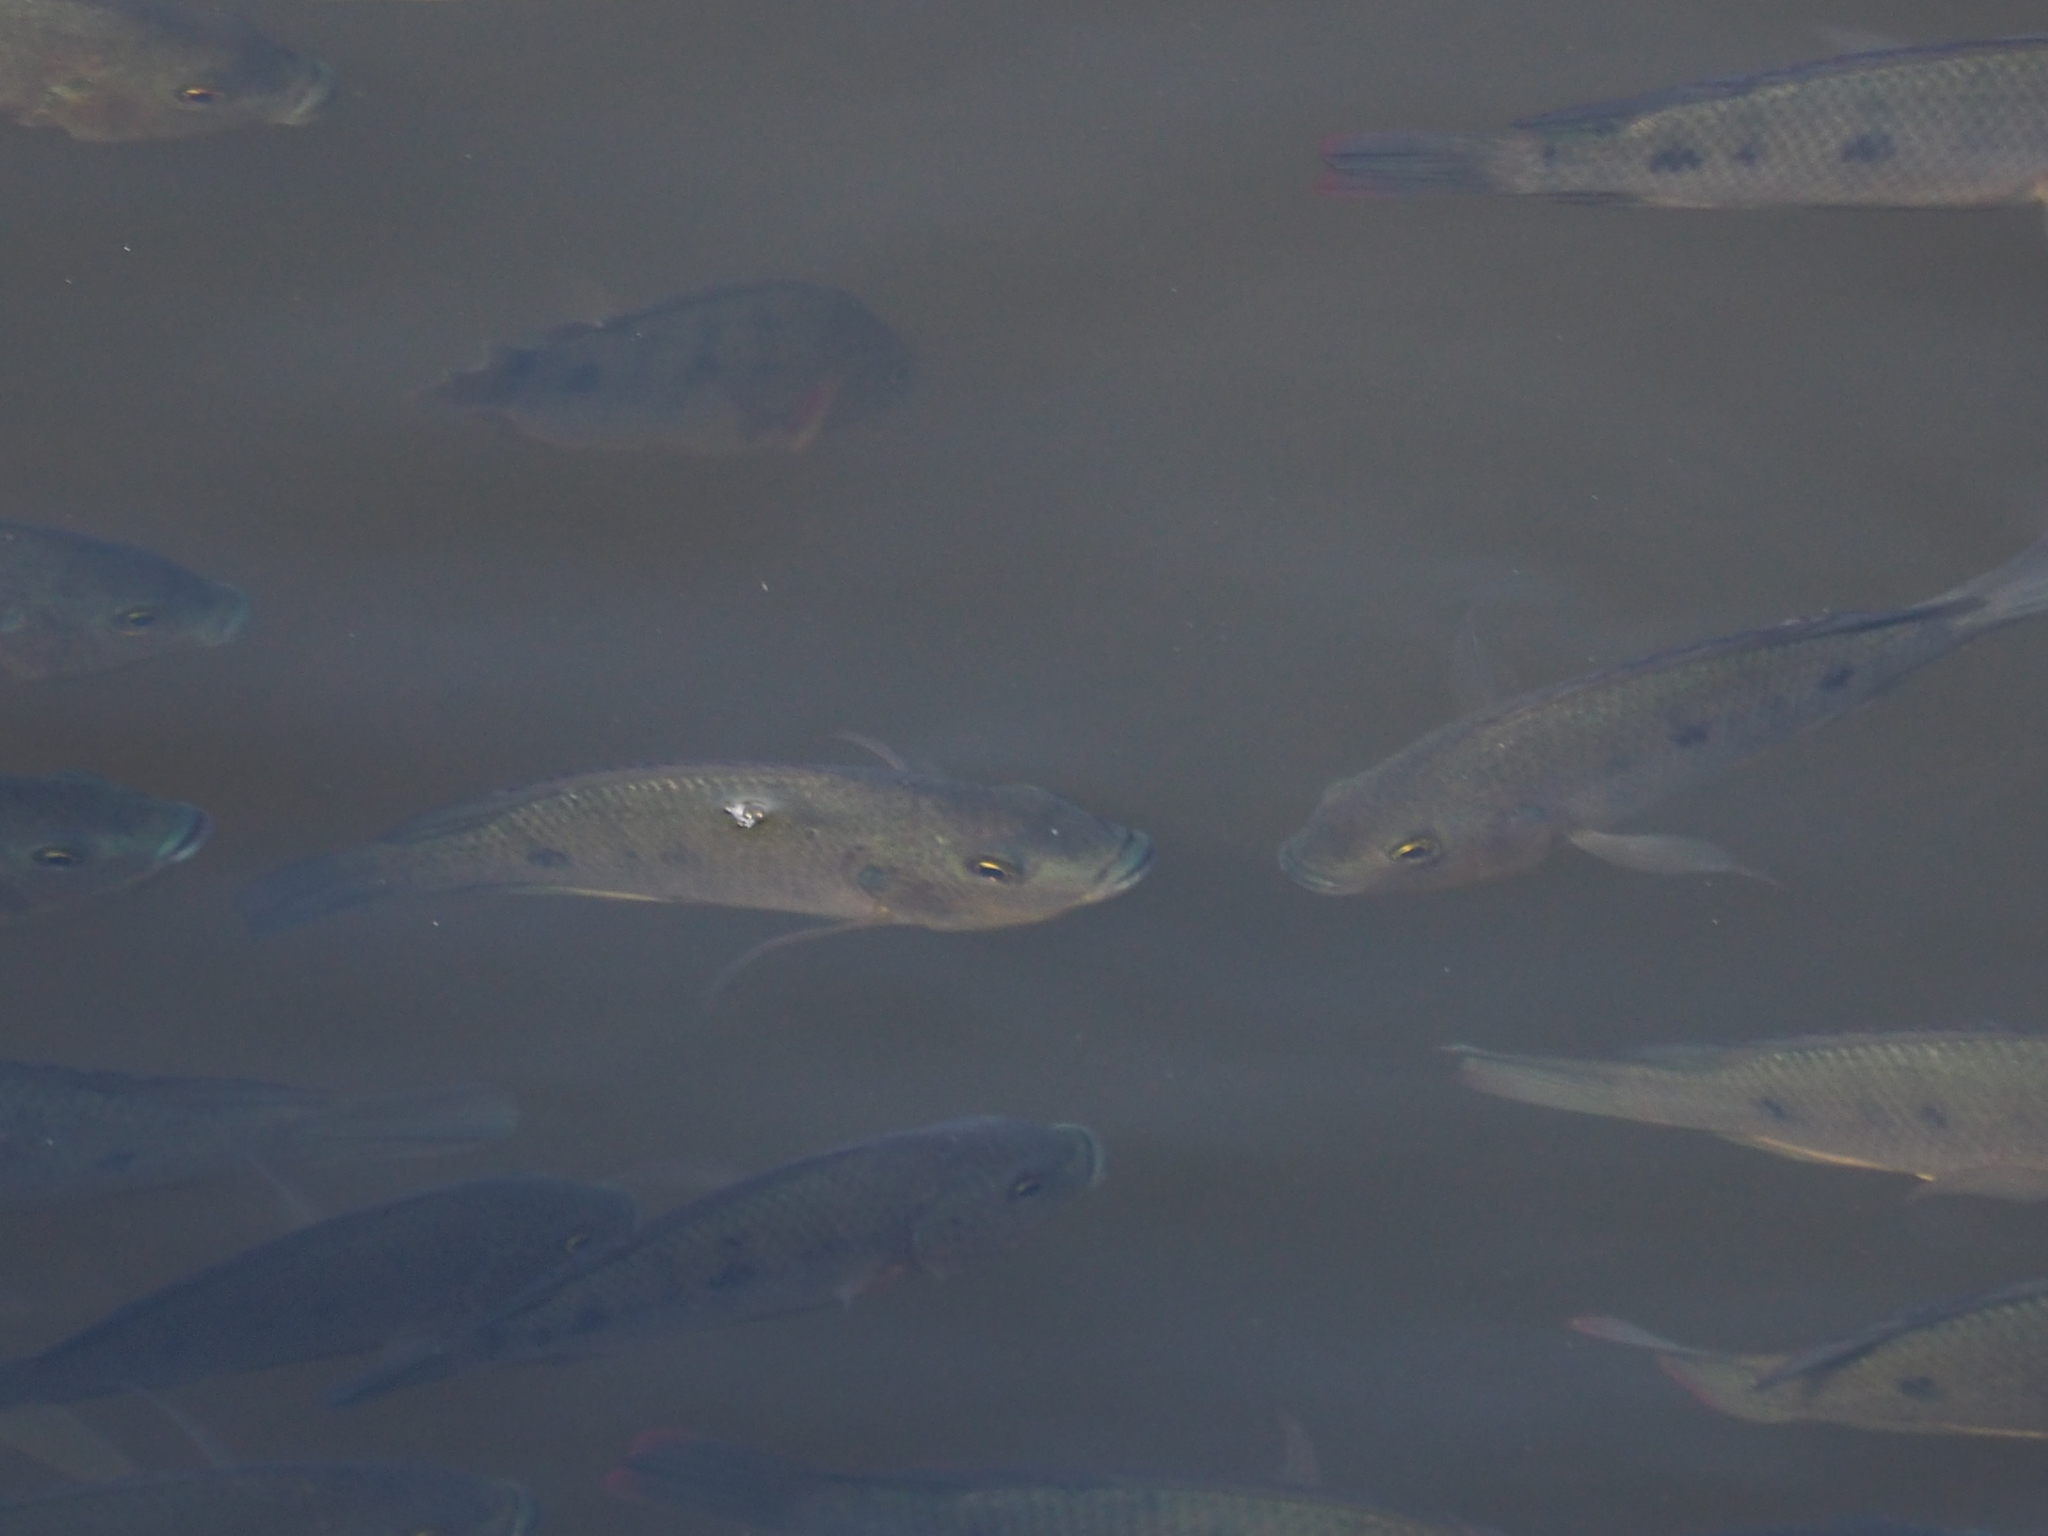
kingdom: Animalia
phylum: Chordata
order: Perciformes
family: Cichlidae
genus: Oreochromis
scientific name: Oreochromis mossambicus
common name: Mozambique tilapia
